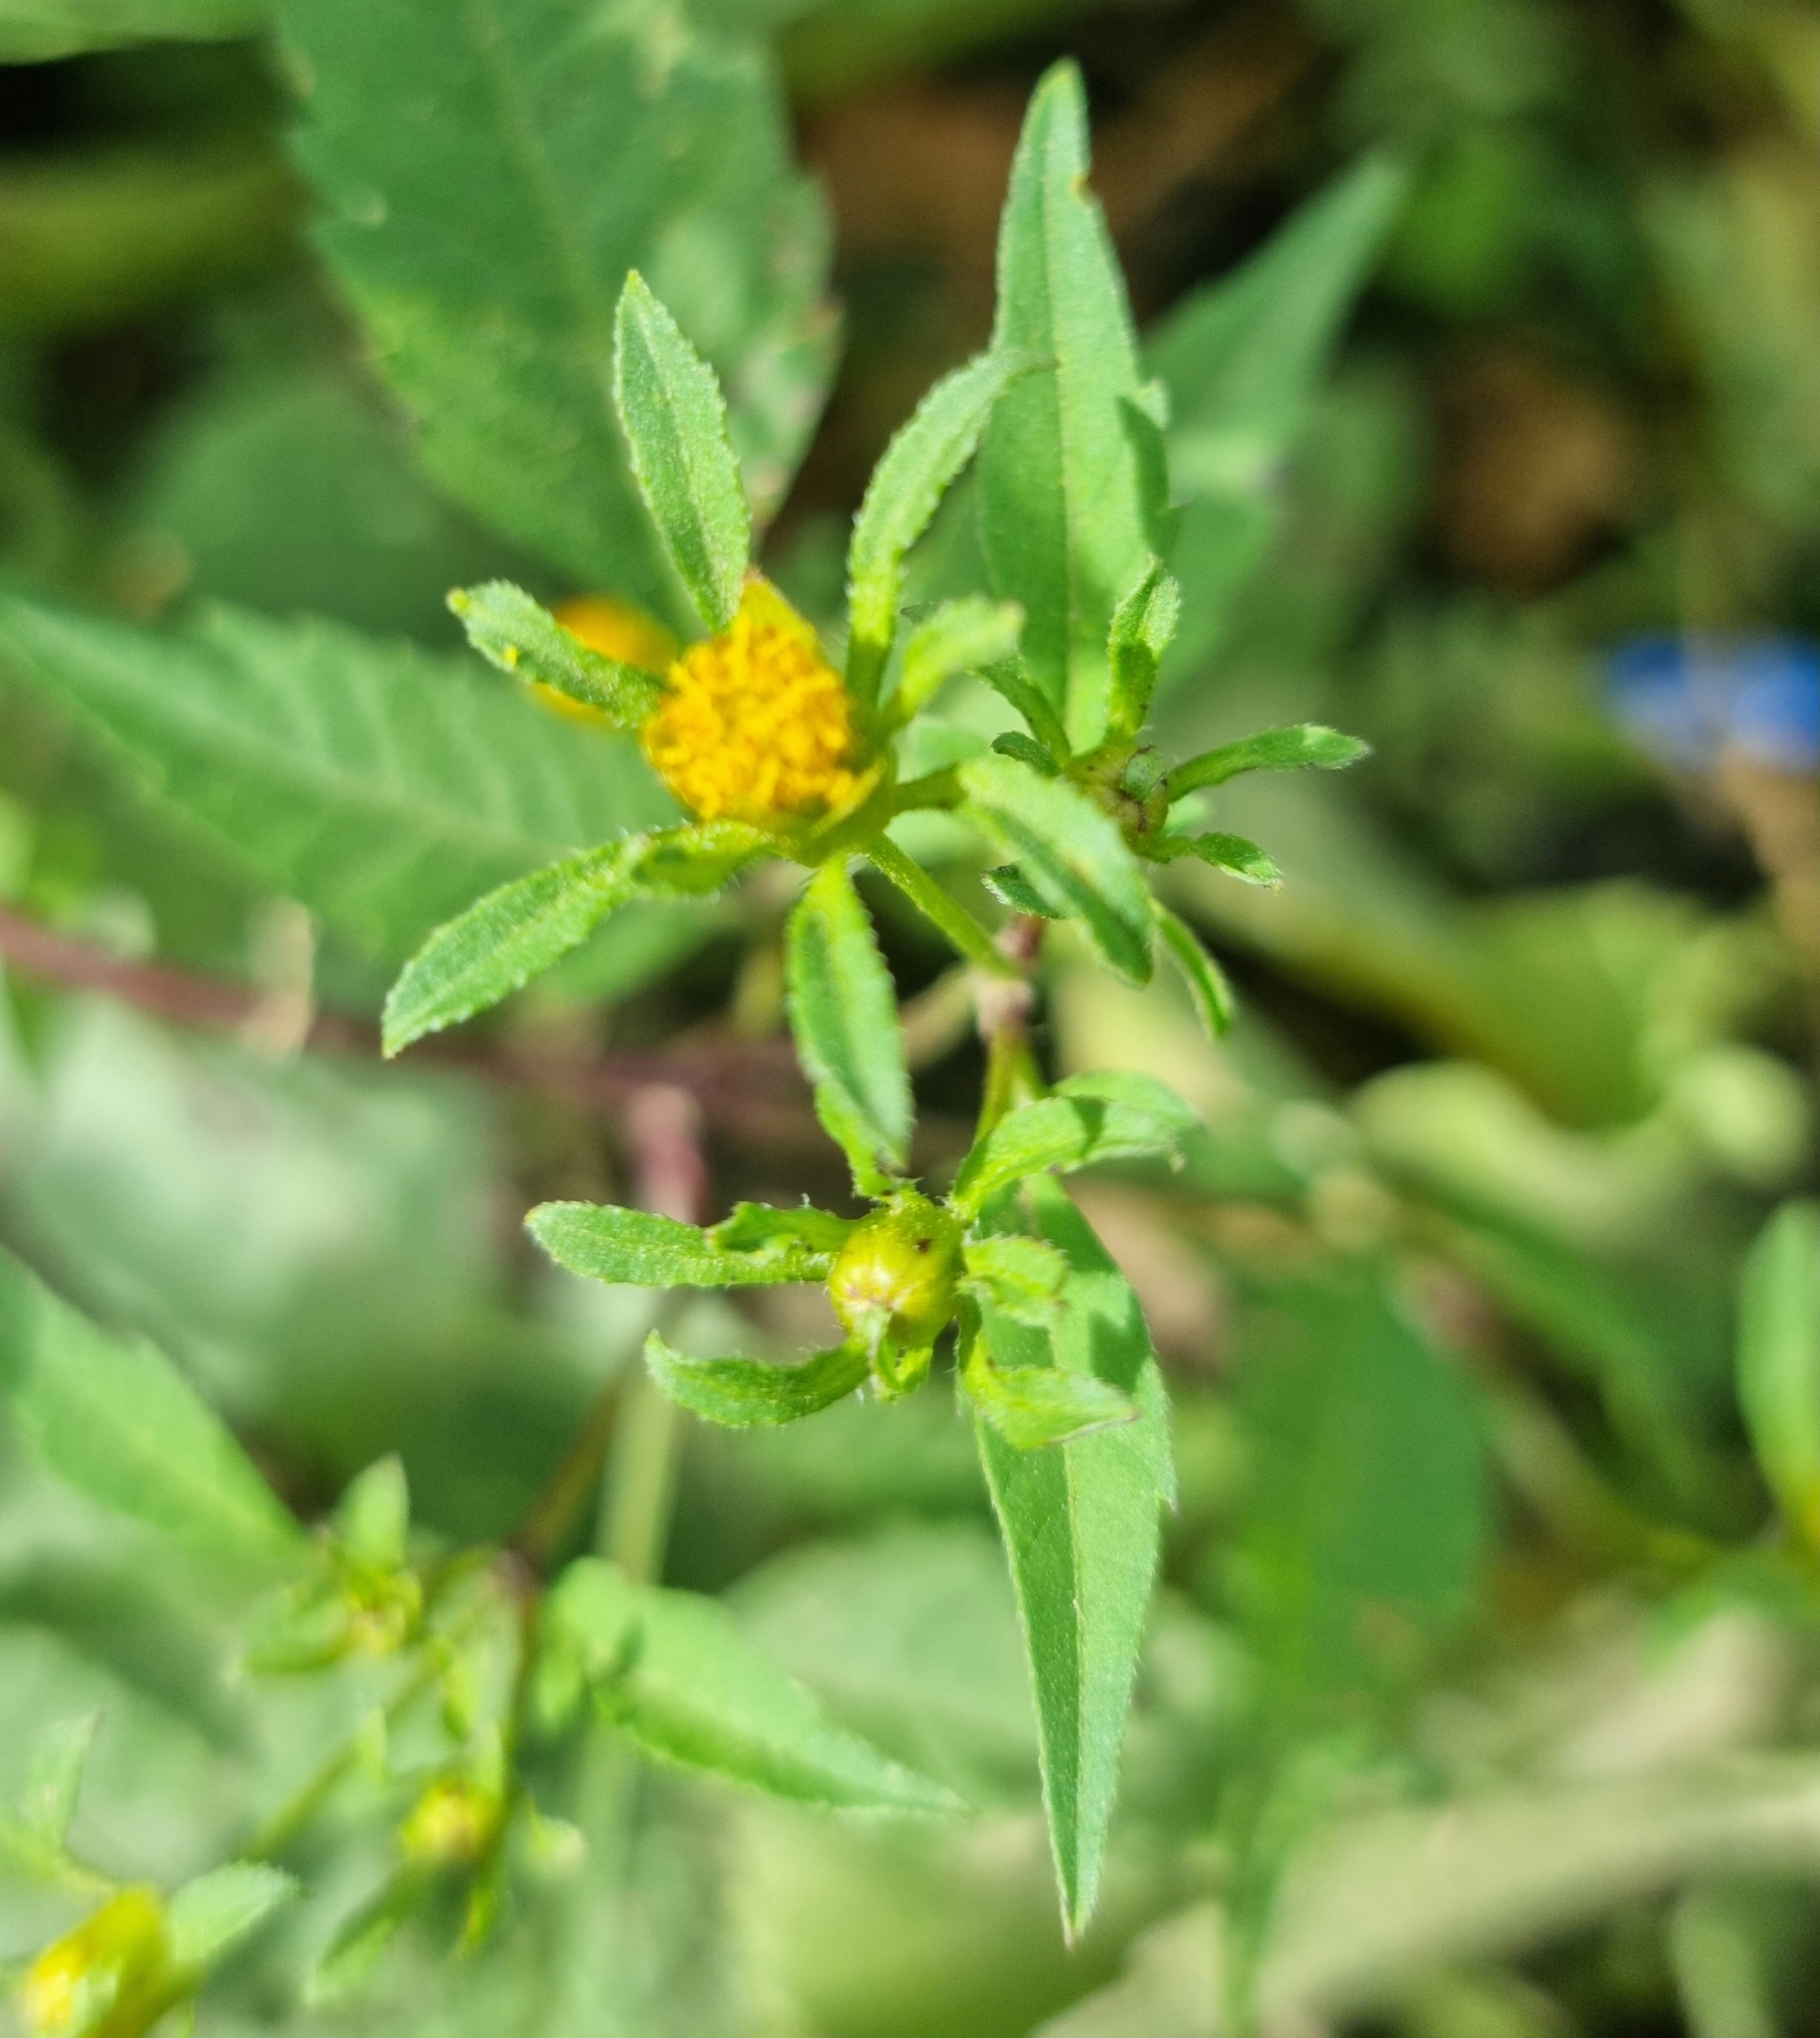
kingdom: Plantae
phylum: Tracheophyta
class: Magnoliopsida
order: Asterales
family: Asteraceae
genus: Bidens
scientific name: Bidens frondosa
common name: Beggarticks
